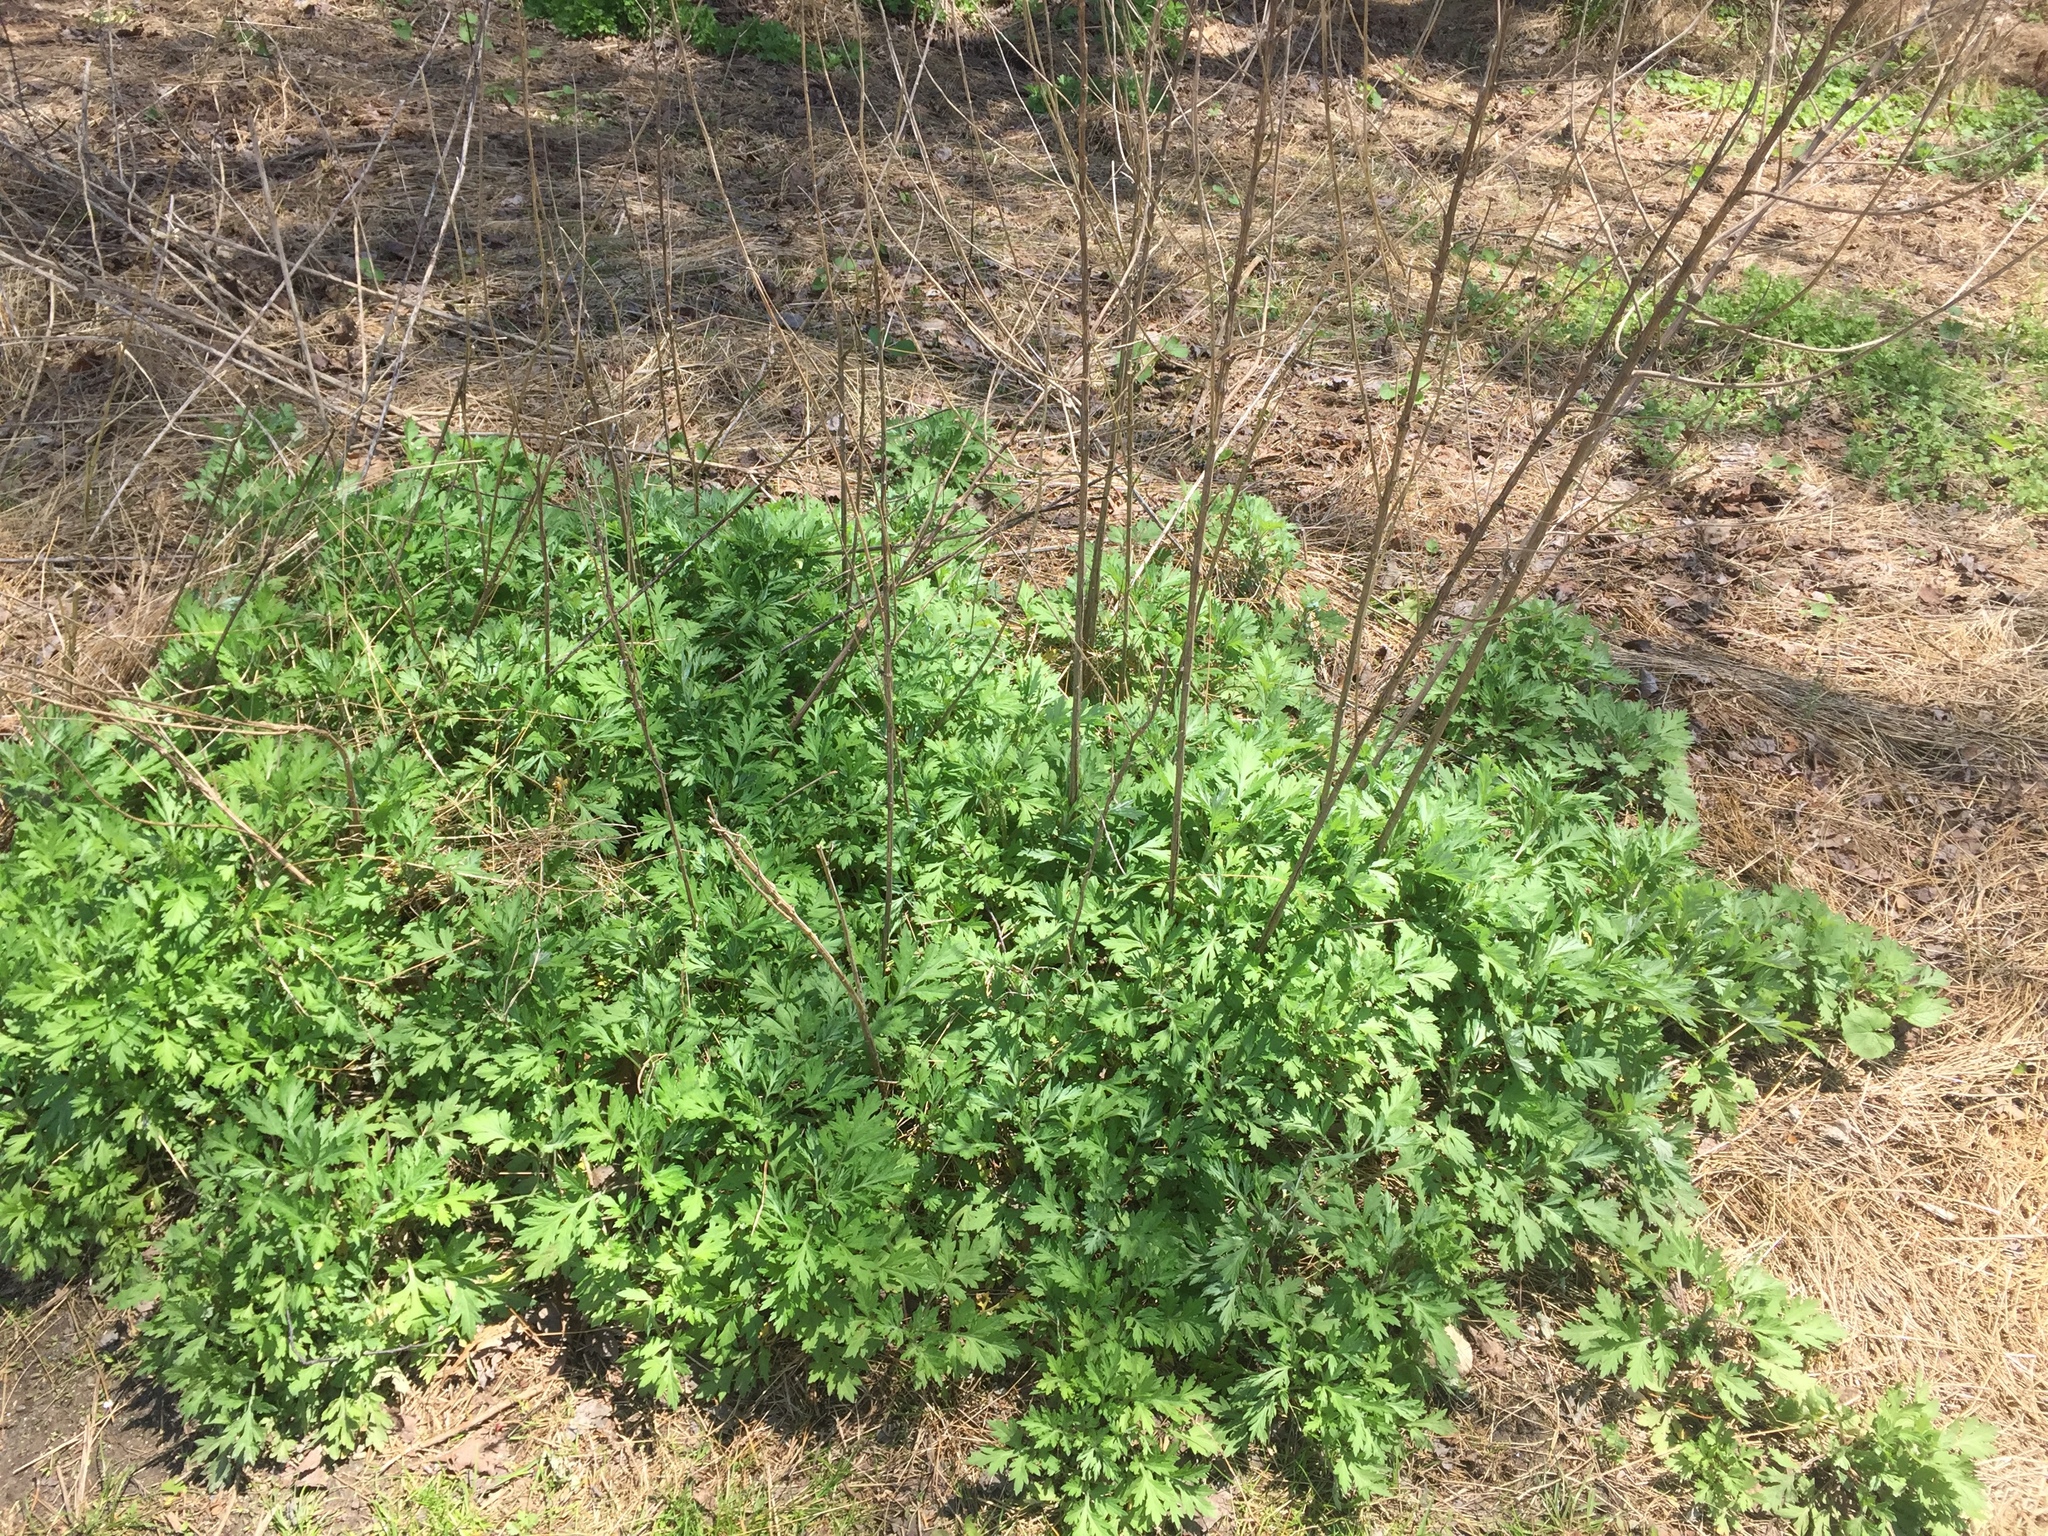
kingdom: Plantae
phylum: Tracheophyta
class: Magnoliopsida
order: Asterales
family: Asteraceae
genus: Artemisia
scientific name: Artemisia vulgaris
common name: Mugwort
